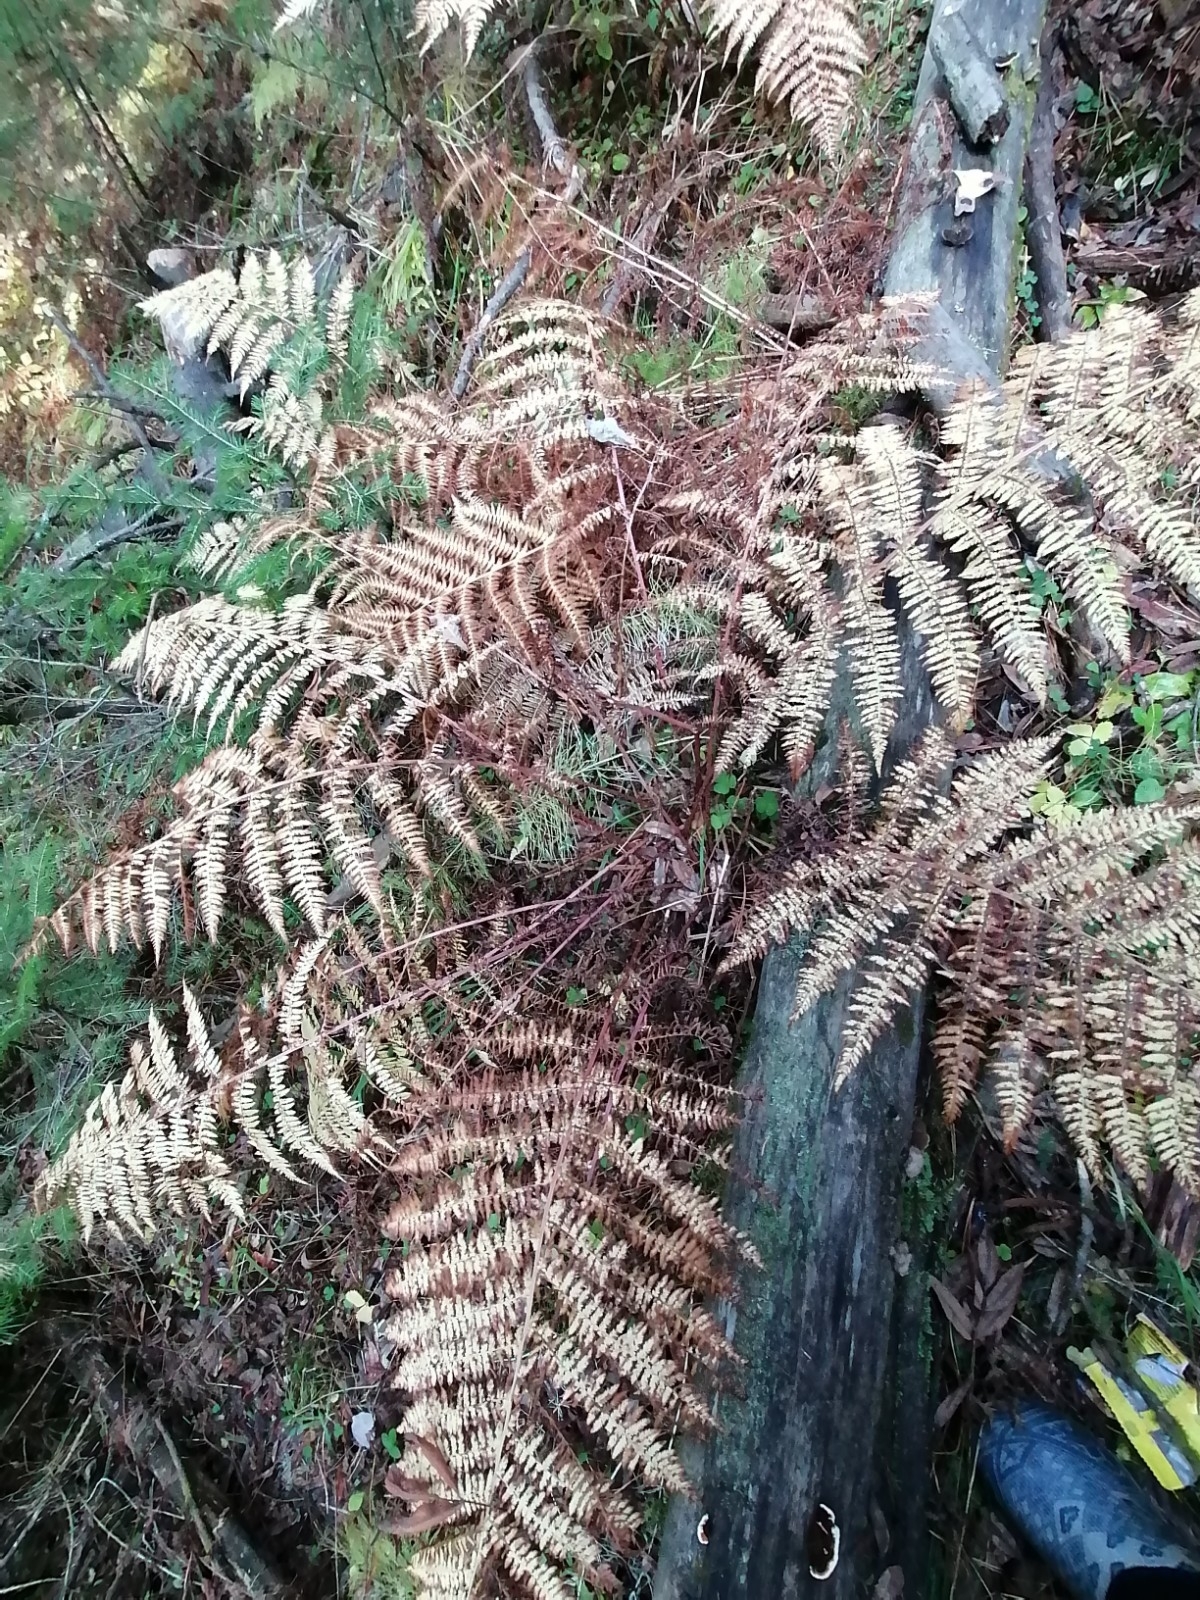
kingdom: Plantae
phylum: Tracheophyta
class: Polypodiopsida
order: Polypodiales
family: Athyriaceae
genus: Athyrium
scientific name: Athyrium filix-femina
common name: Lady fern
